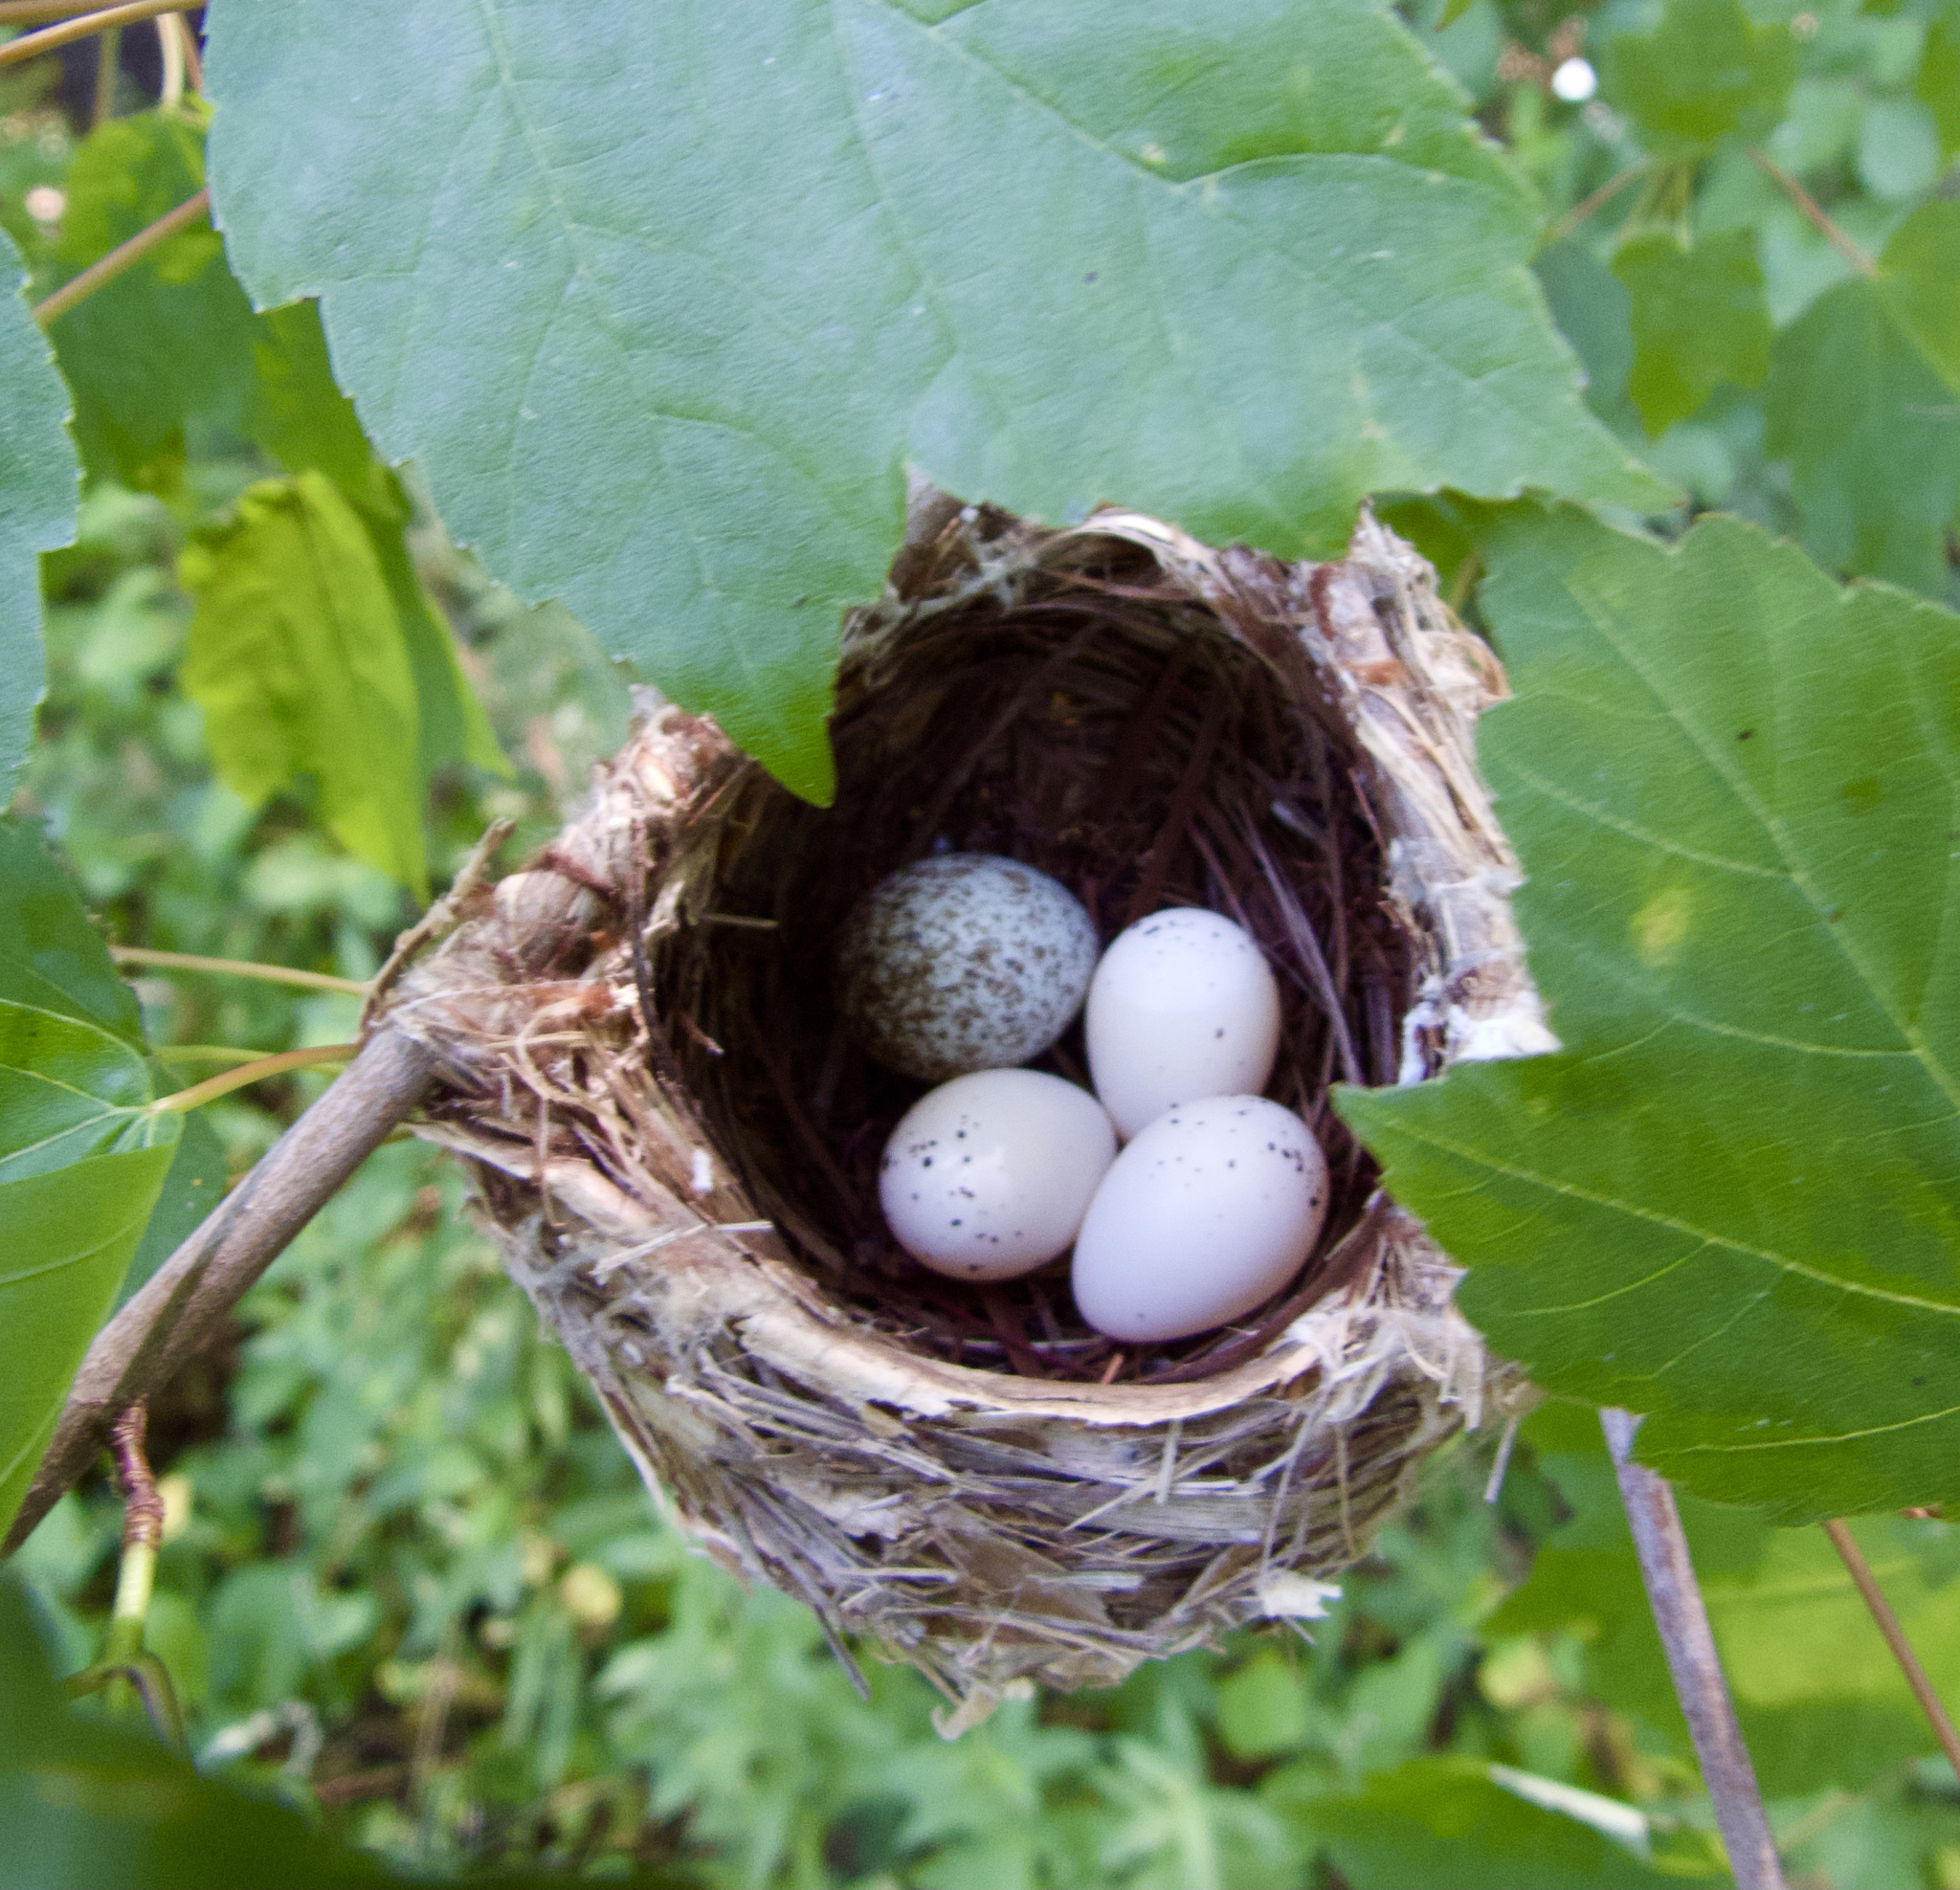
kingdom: Animalia
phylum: Chordata
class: Aves
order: Passeriformes
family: Icteridae
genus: Molothrus
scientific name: Molothrus ater
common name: Brown-headed cowbird
